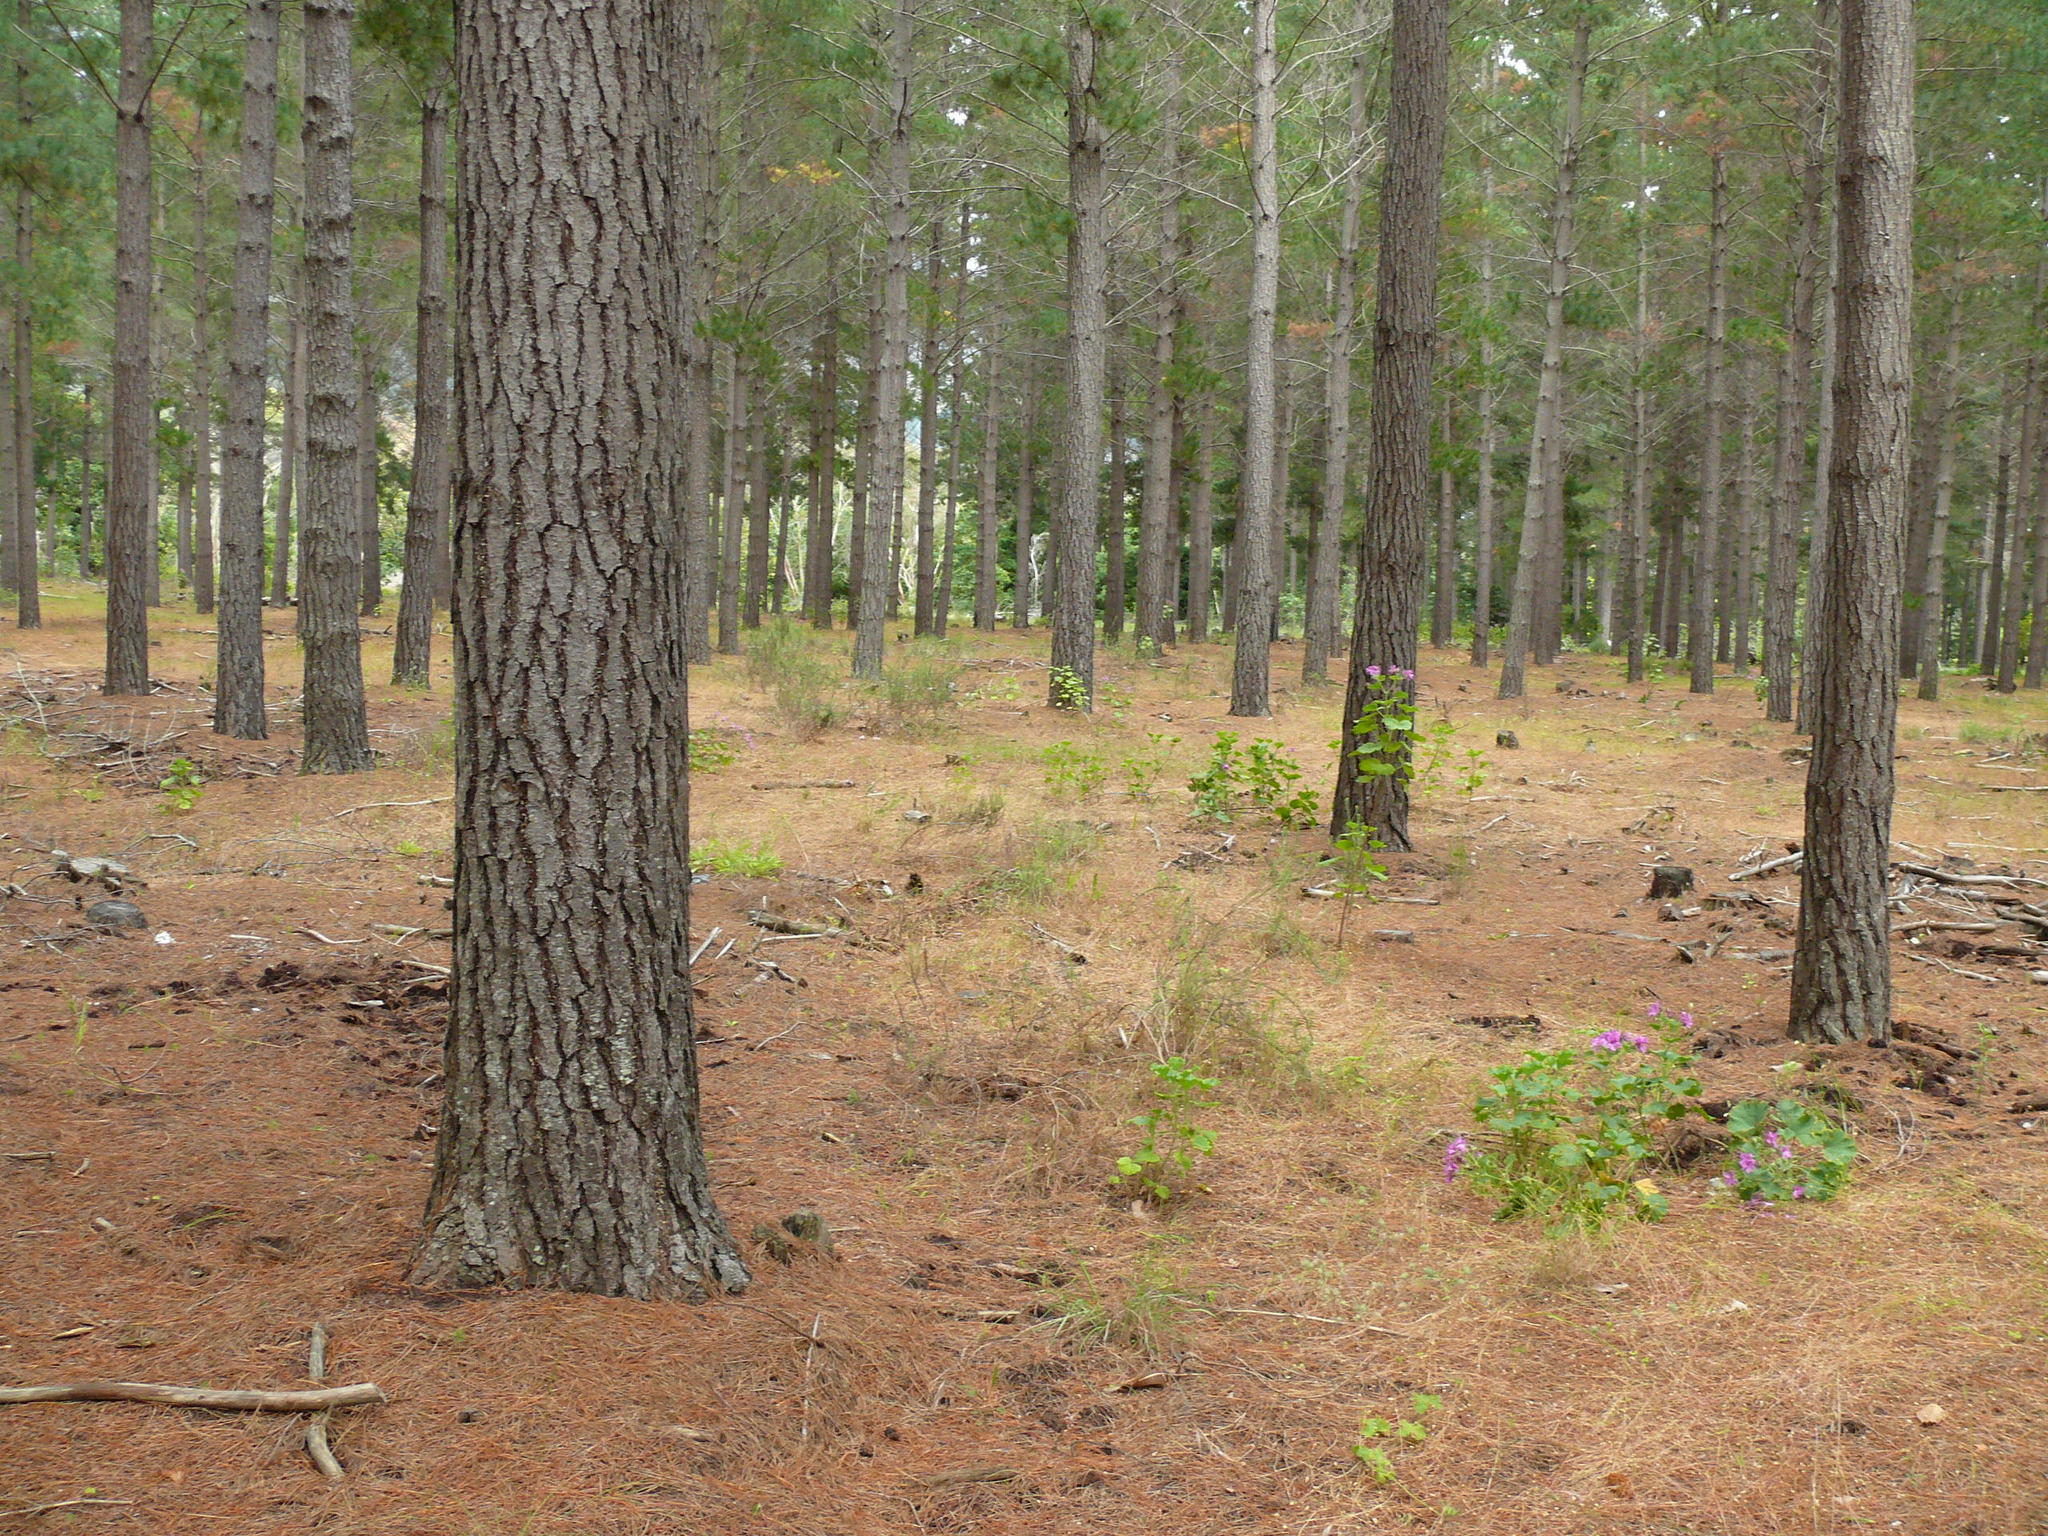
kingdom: Plantae
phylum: Tracheophyta
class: Magnoliopsida
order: Geraniales
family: Geraniaceae
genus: Pelargonium
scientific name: Pelargonium cucullatum
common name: Tree pelargonium
